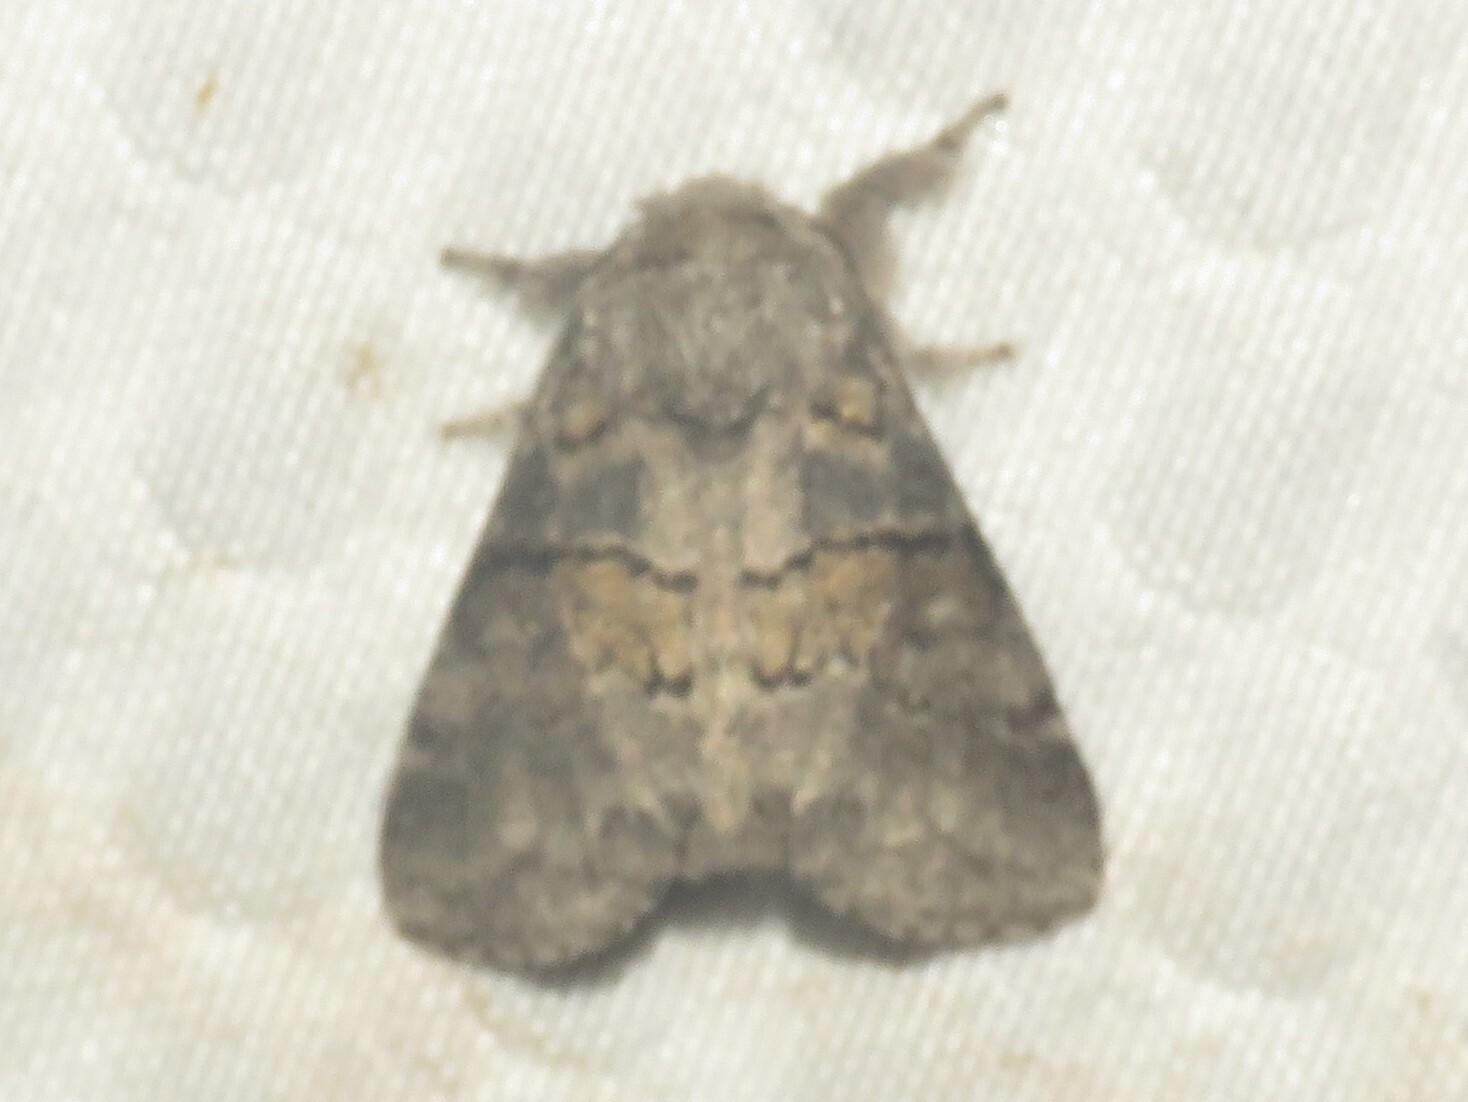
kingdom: Animalia
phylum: Arthropoda
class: Insecta
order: Lepidoptera
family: Notodontidae
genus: Gluphisia
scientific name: Gluphisia septentrionis
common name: Common gluphisia
